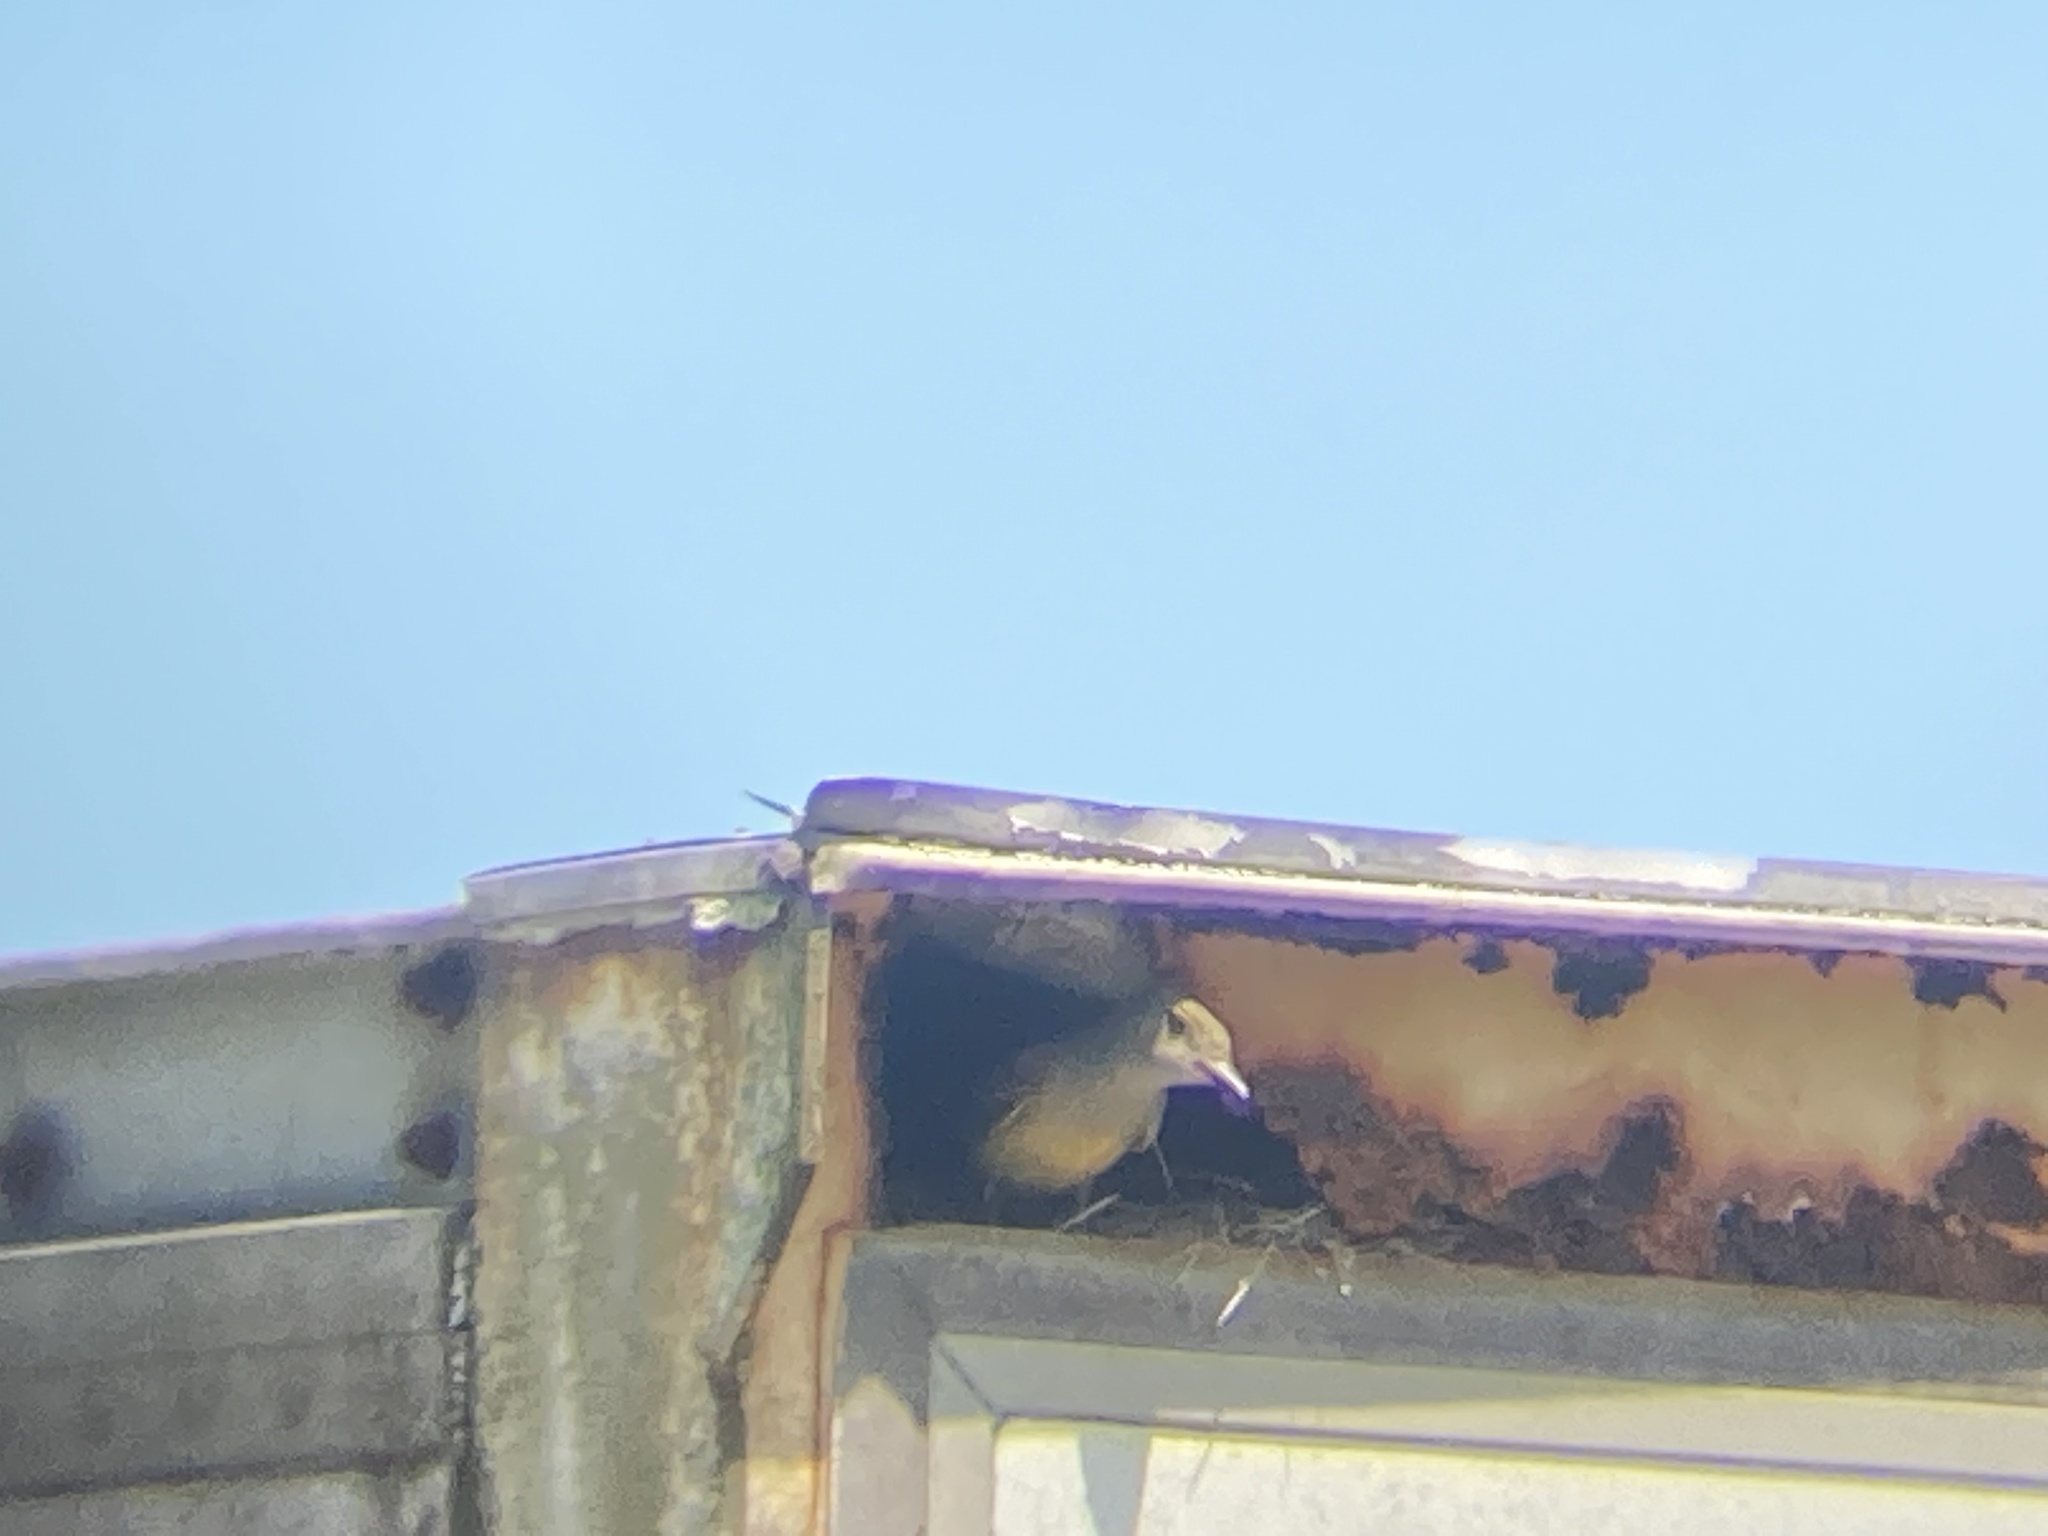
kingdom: Animalia
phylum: Chordata
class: Aves
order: Passeriformes
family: Tyrannidae
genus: Myiarchus
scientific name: Myiarchus crinitus
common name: Great crested flycatcher
